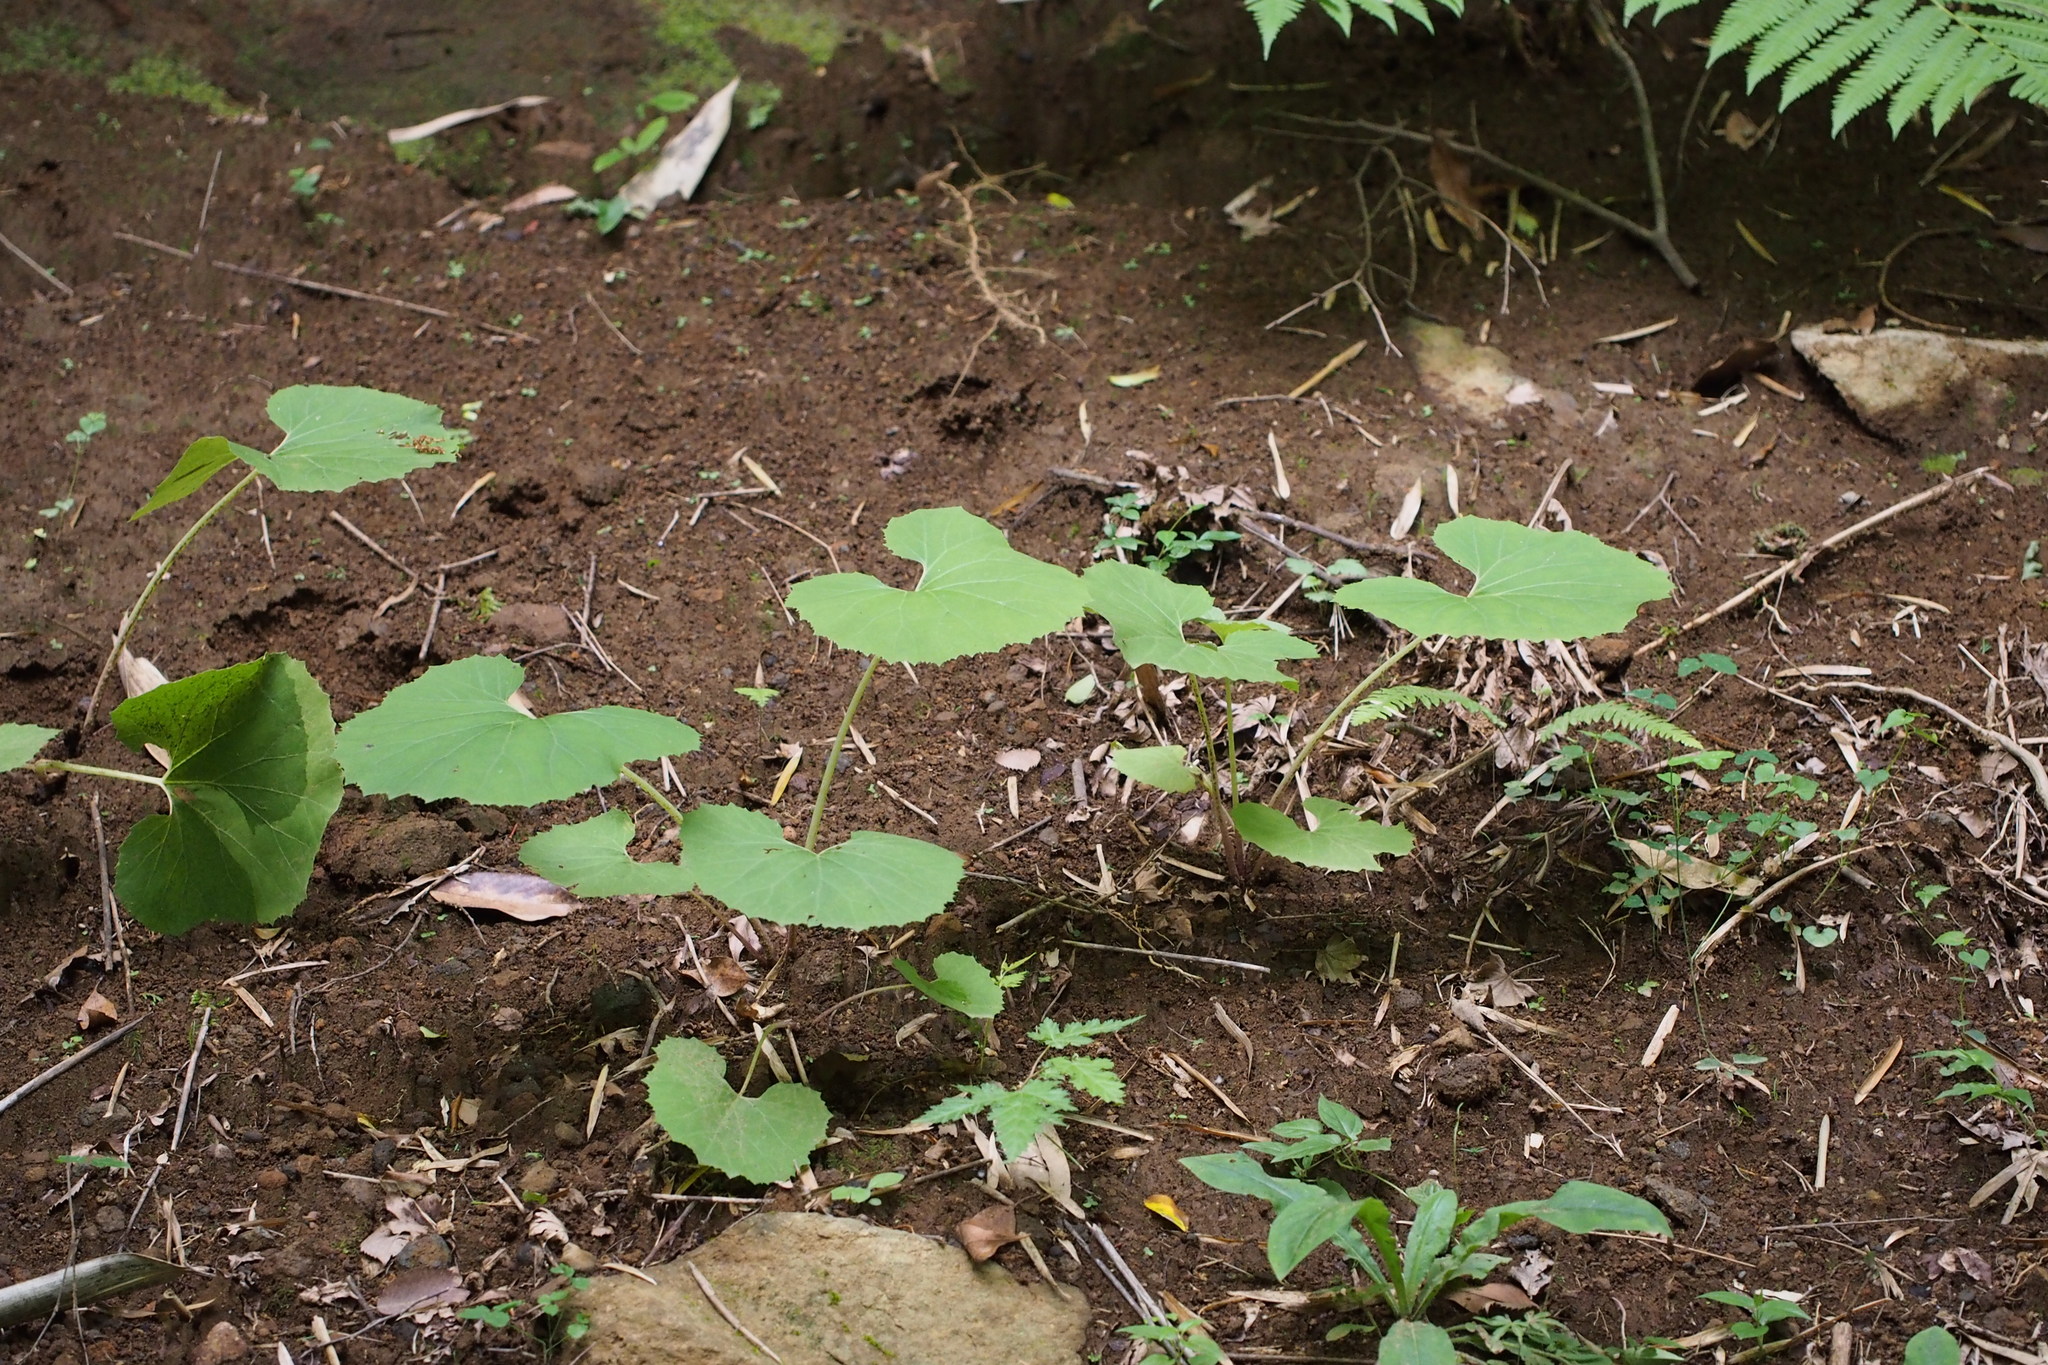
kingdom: Plantae
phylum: Tracheophyta
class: Magnoliopsida
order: Asterales
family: Asteraceae
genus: Petasites
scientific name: Petasites japonicus
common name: Giant butterbur
